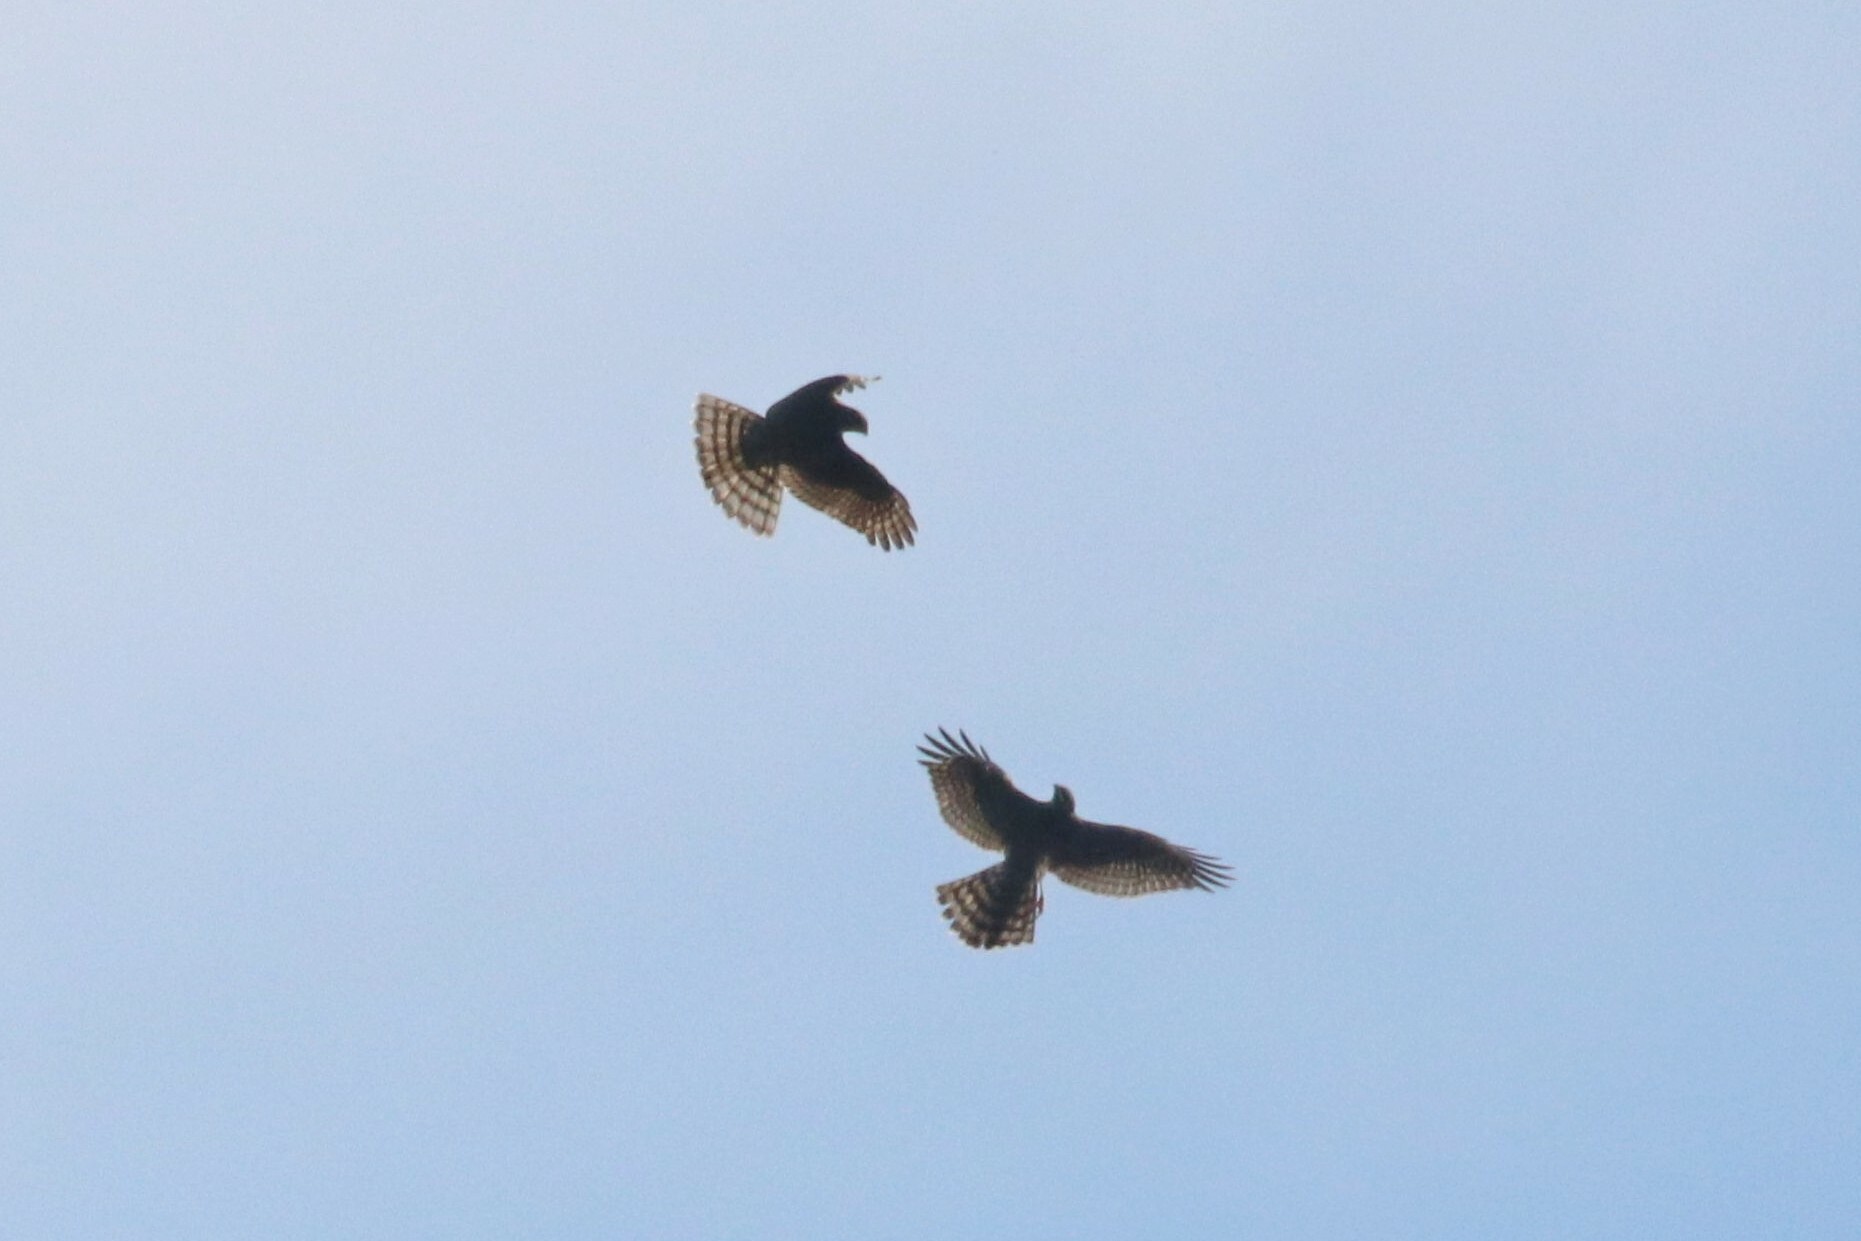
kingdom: Animalia
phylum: Chordata
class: Aves
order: Accipitriformes
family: Accipitridae
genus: Accipiter
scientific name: Accipiter nisus
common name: Eurasian sparrowhawk
